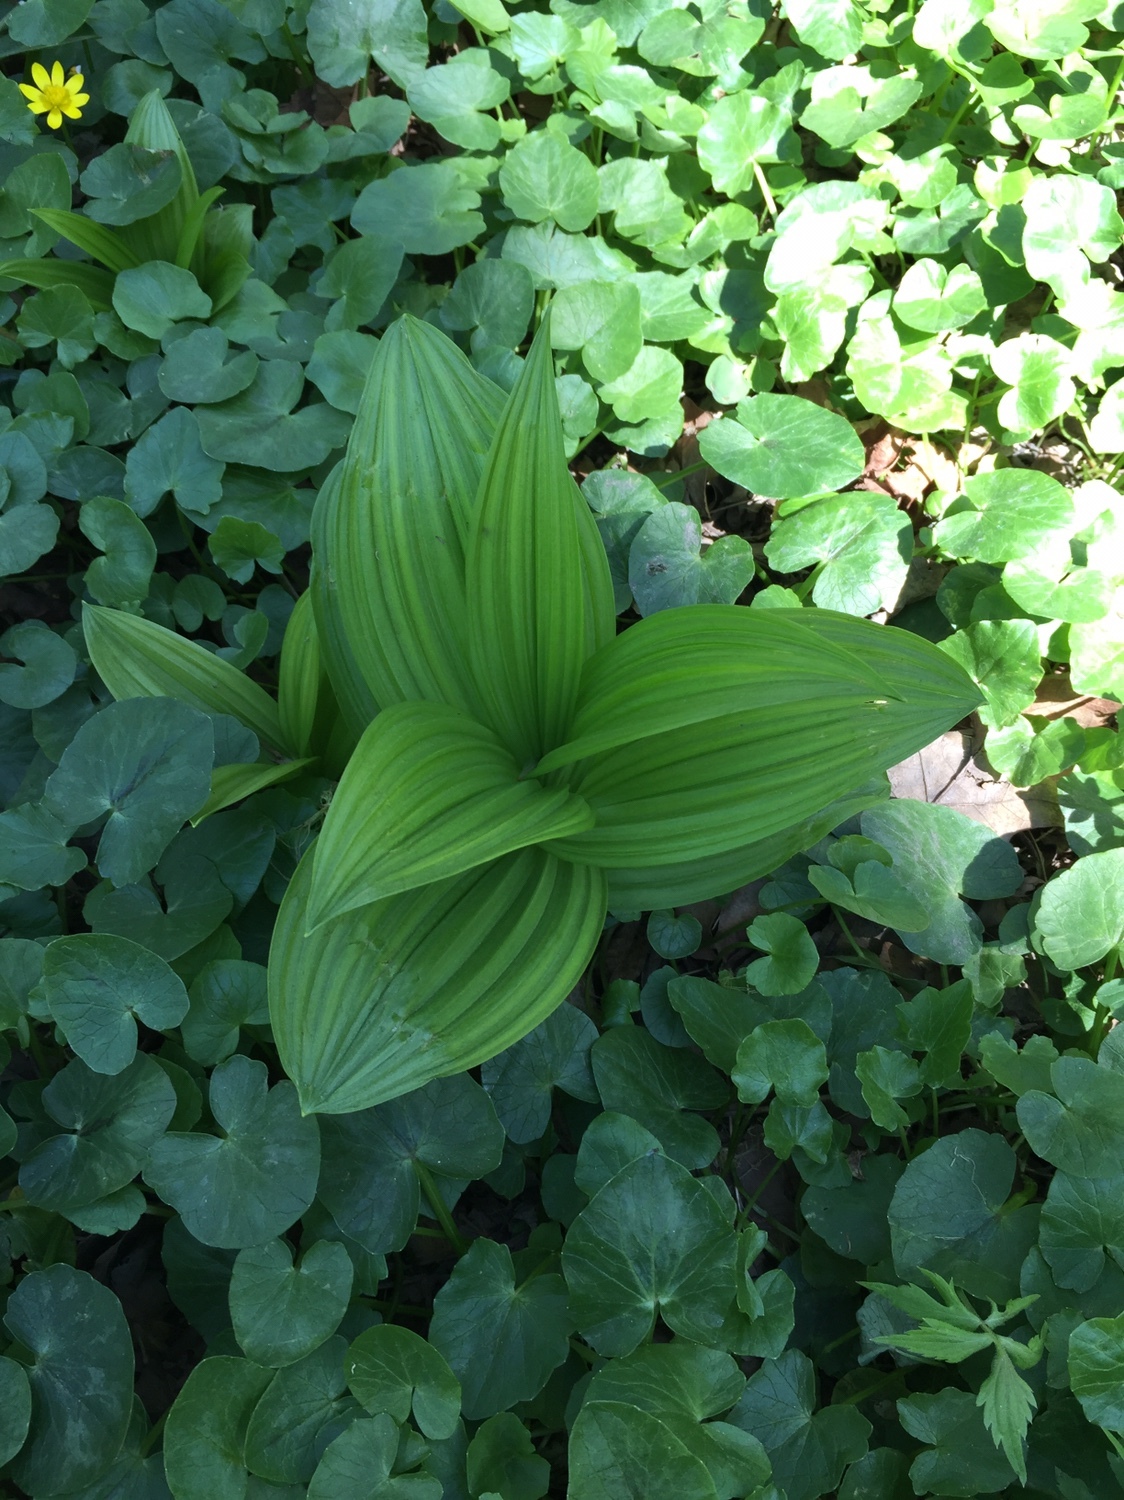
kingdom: Plantae
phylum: Tracheophyta
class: Liliopsida
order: Liliales
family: Melanthiaceae
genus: Veratrum
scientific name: Veratrum viride
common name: American false hellebore
